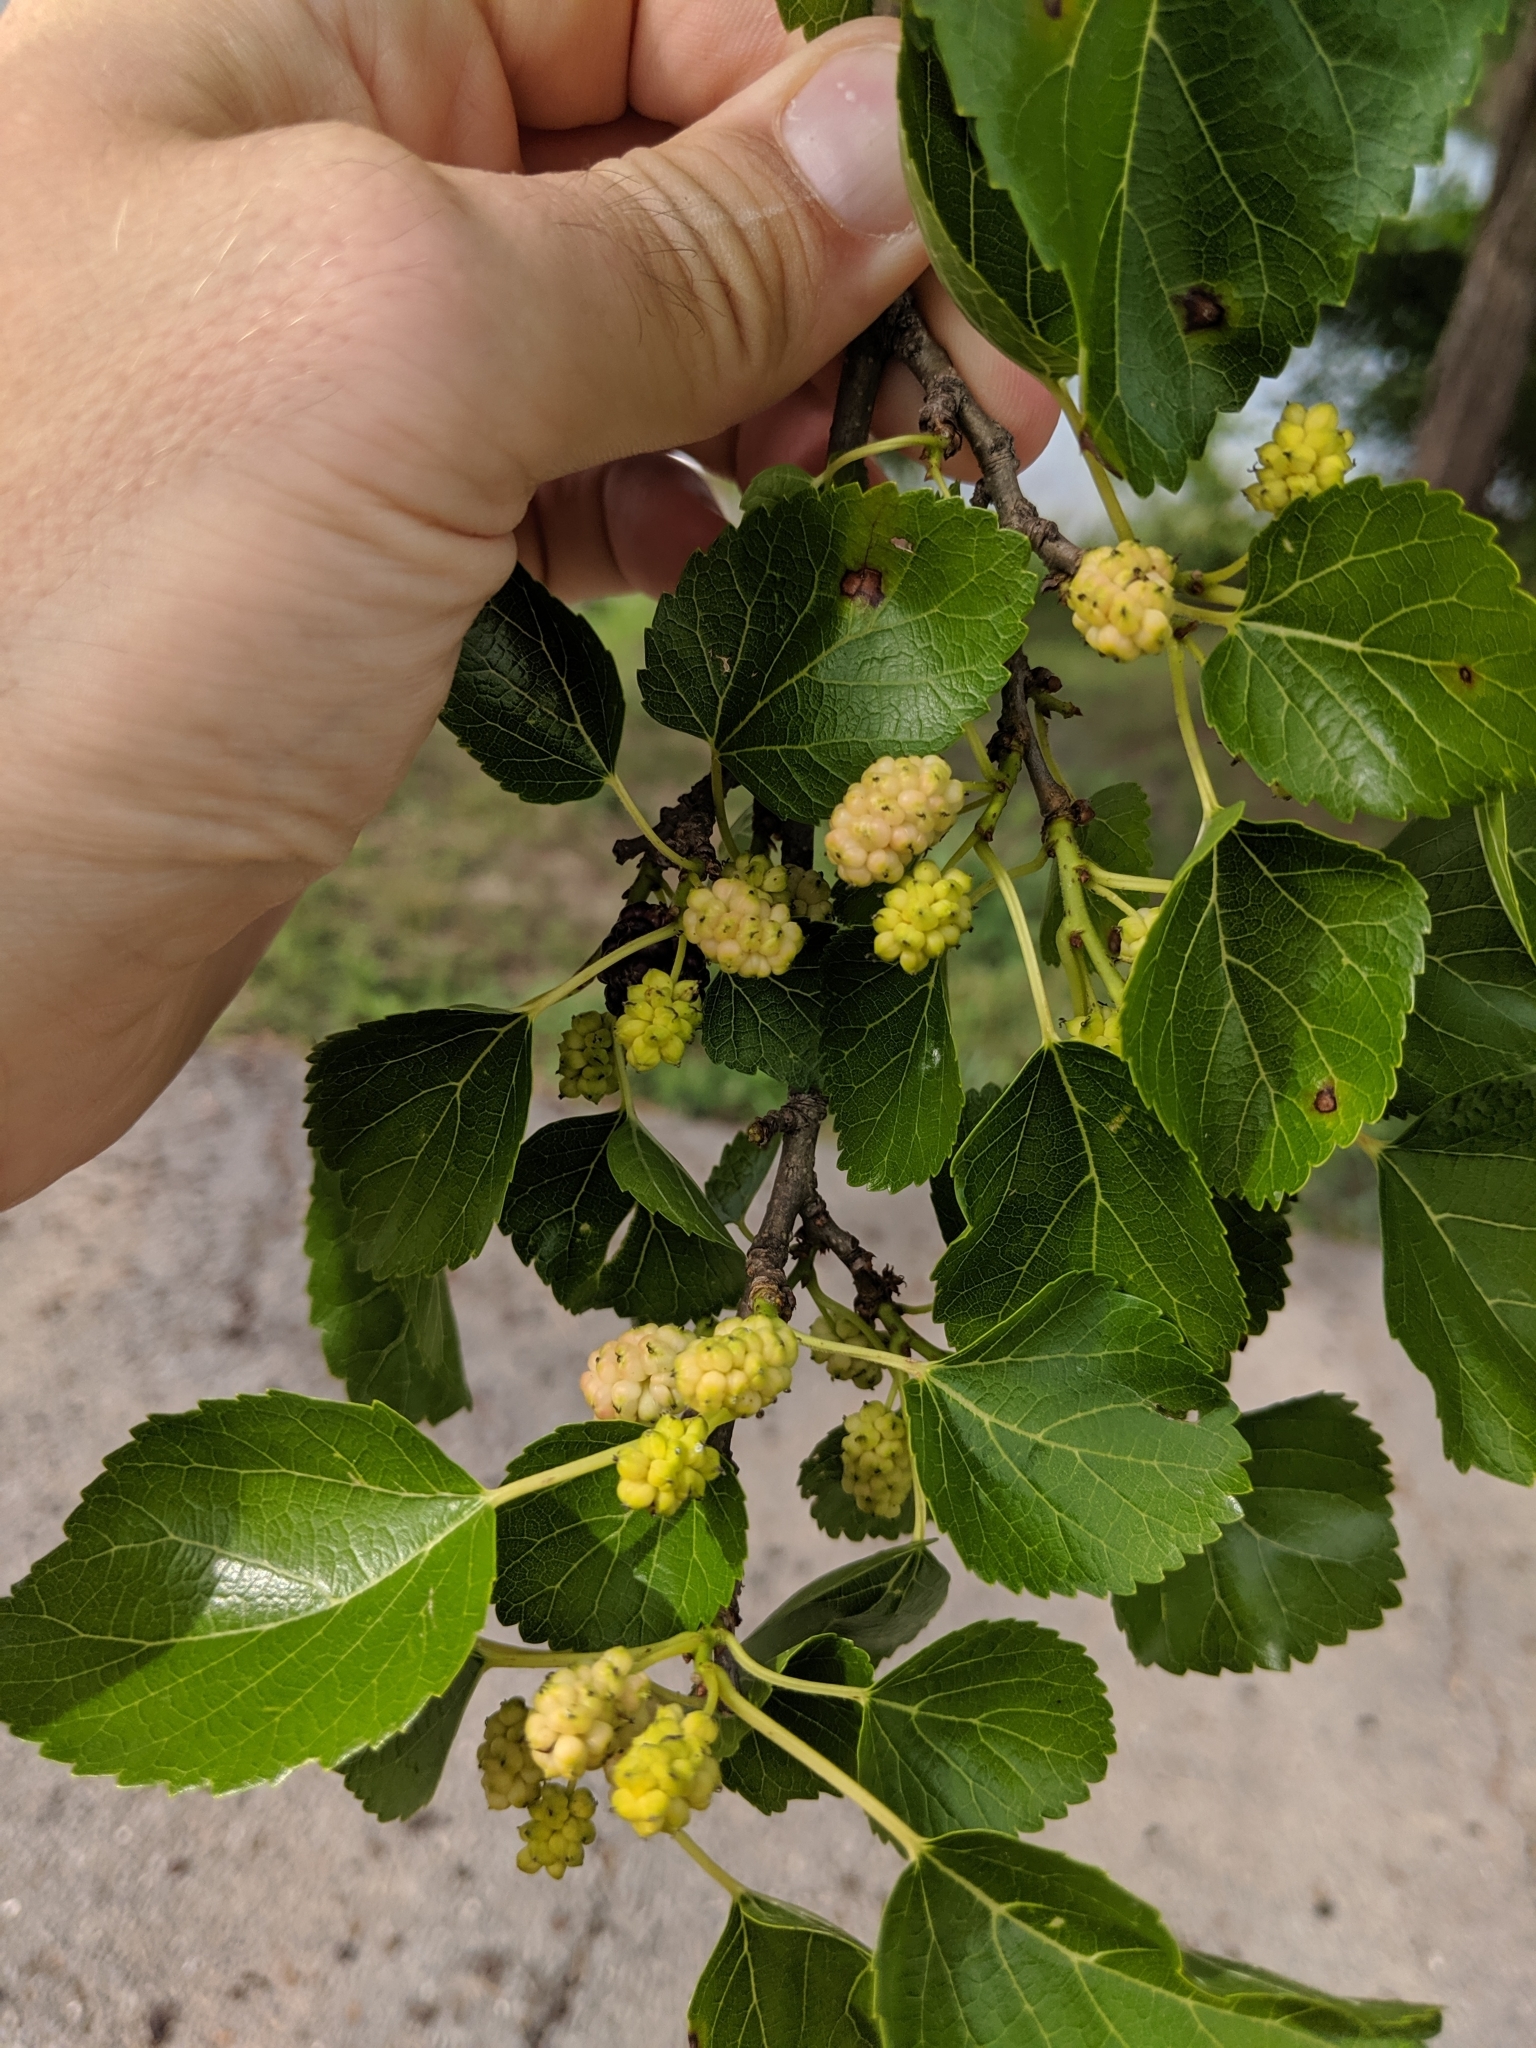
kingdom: Plantae
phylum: Tracheophyta
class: Magnoliopsida
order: Rosales
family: Moraceae
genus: Morus
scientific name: Morus alba
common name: White mulberry
